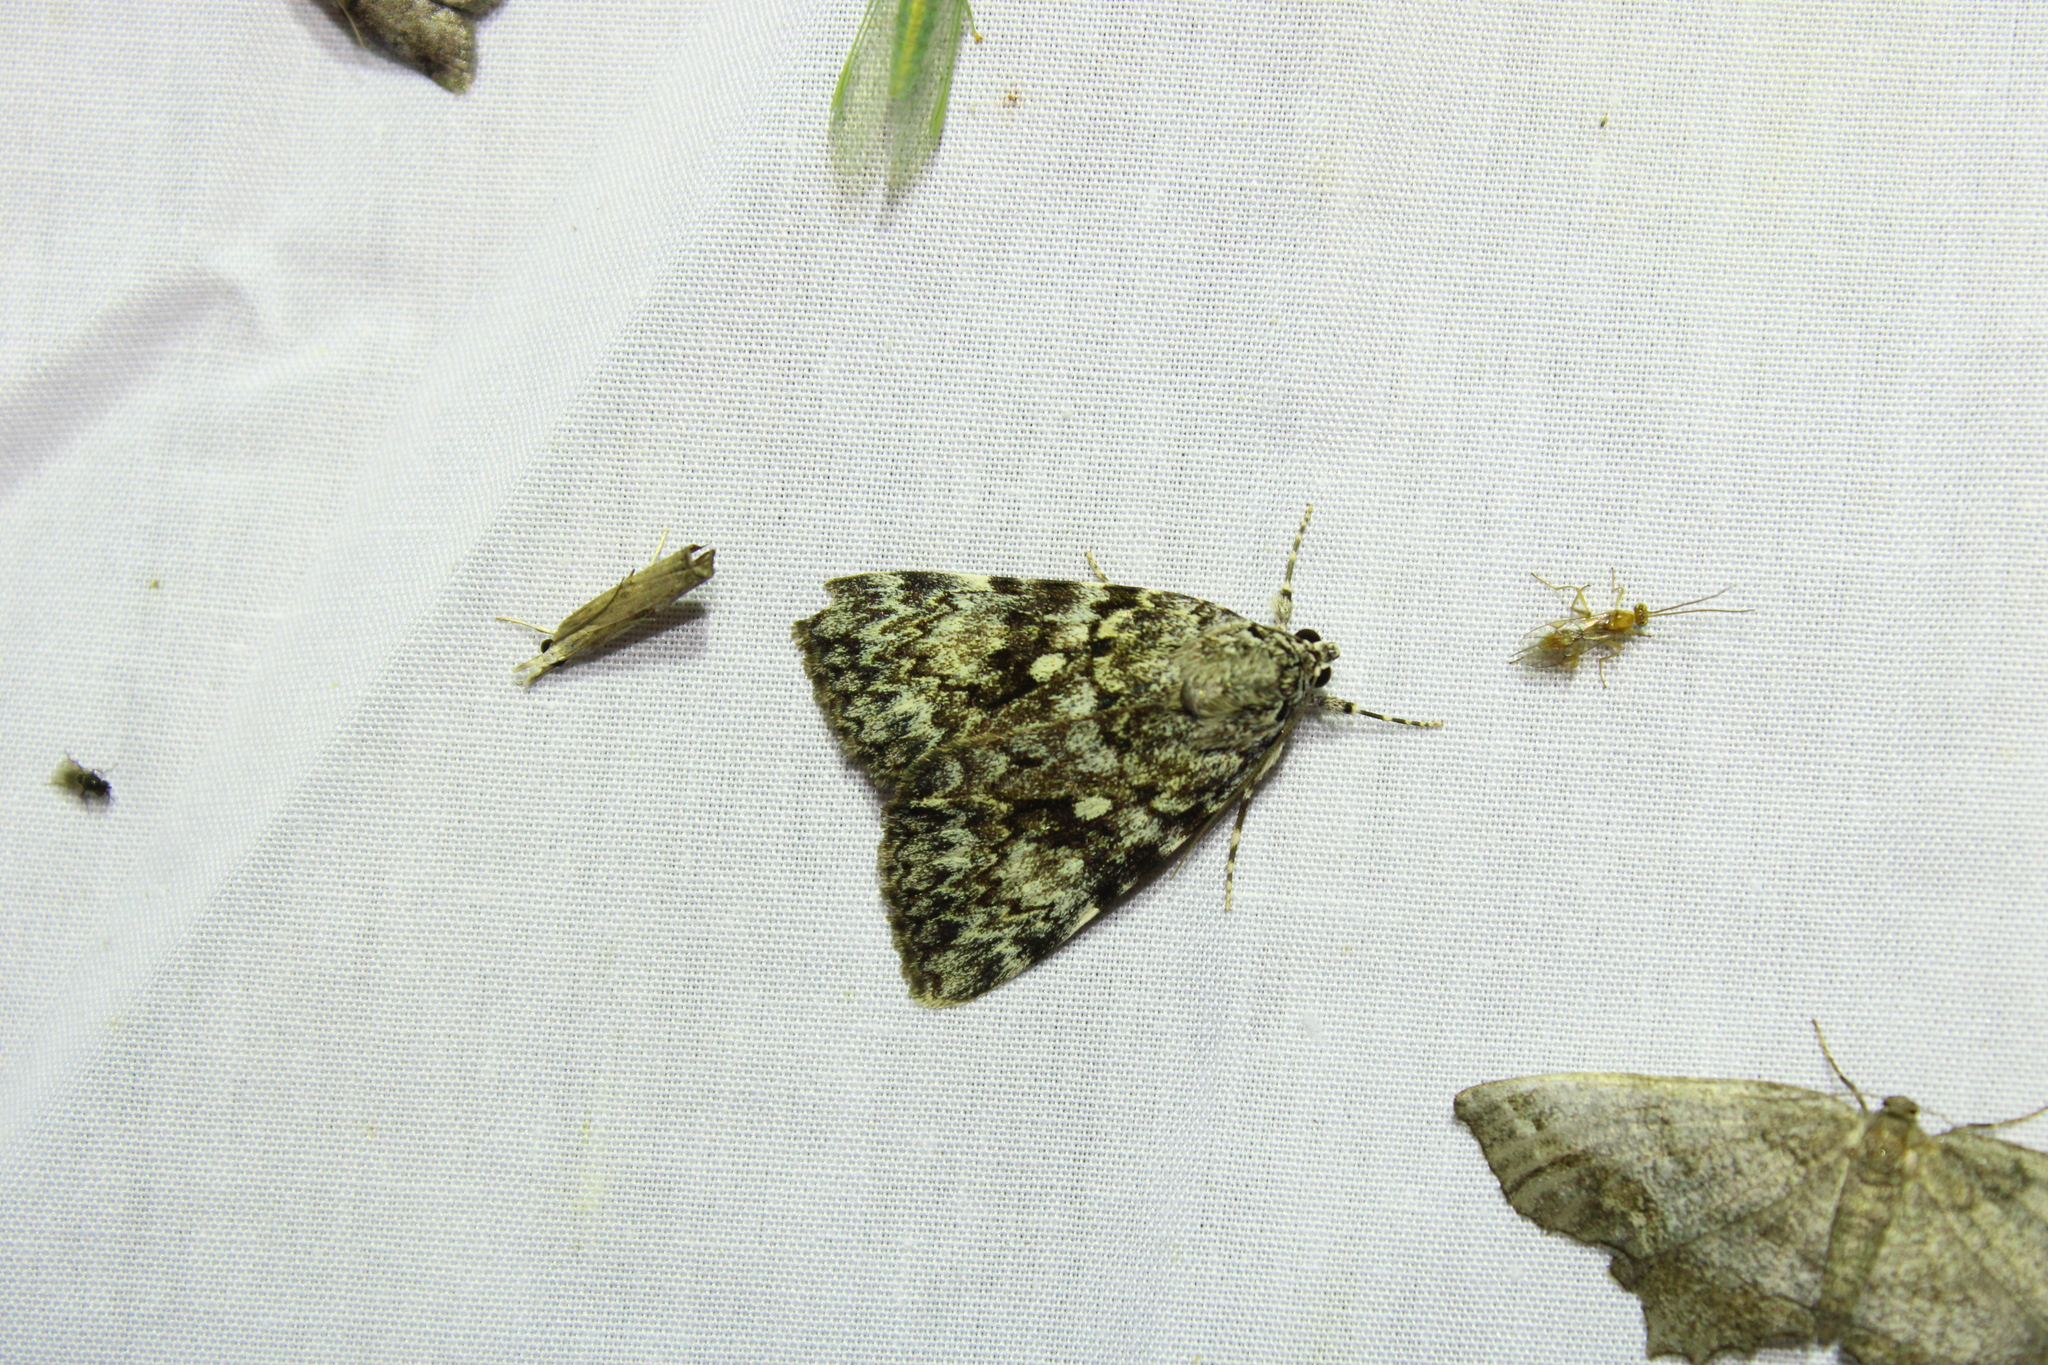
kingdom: Animalia
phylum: Arthropoda
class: Insecta
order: Lepidoptera
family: Erebidae
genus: Catocala
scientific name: Catocala lineella
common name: Little lined underwing
